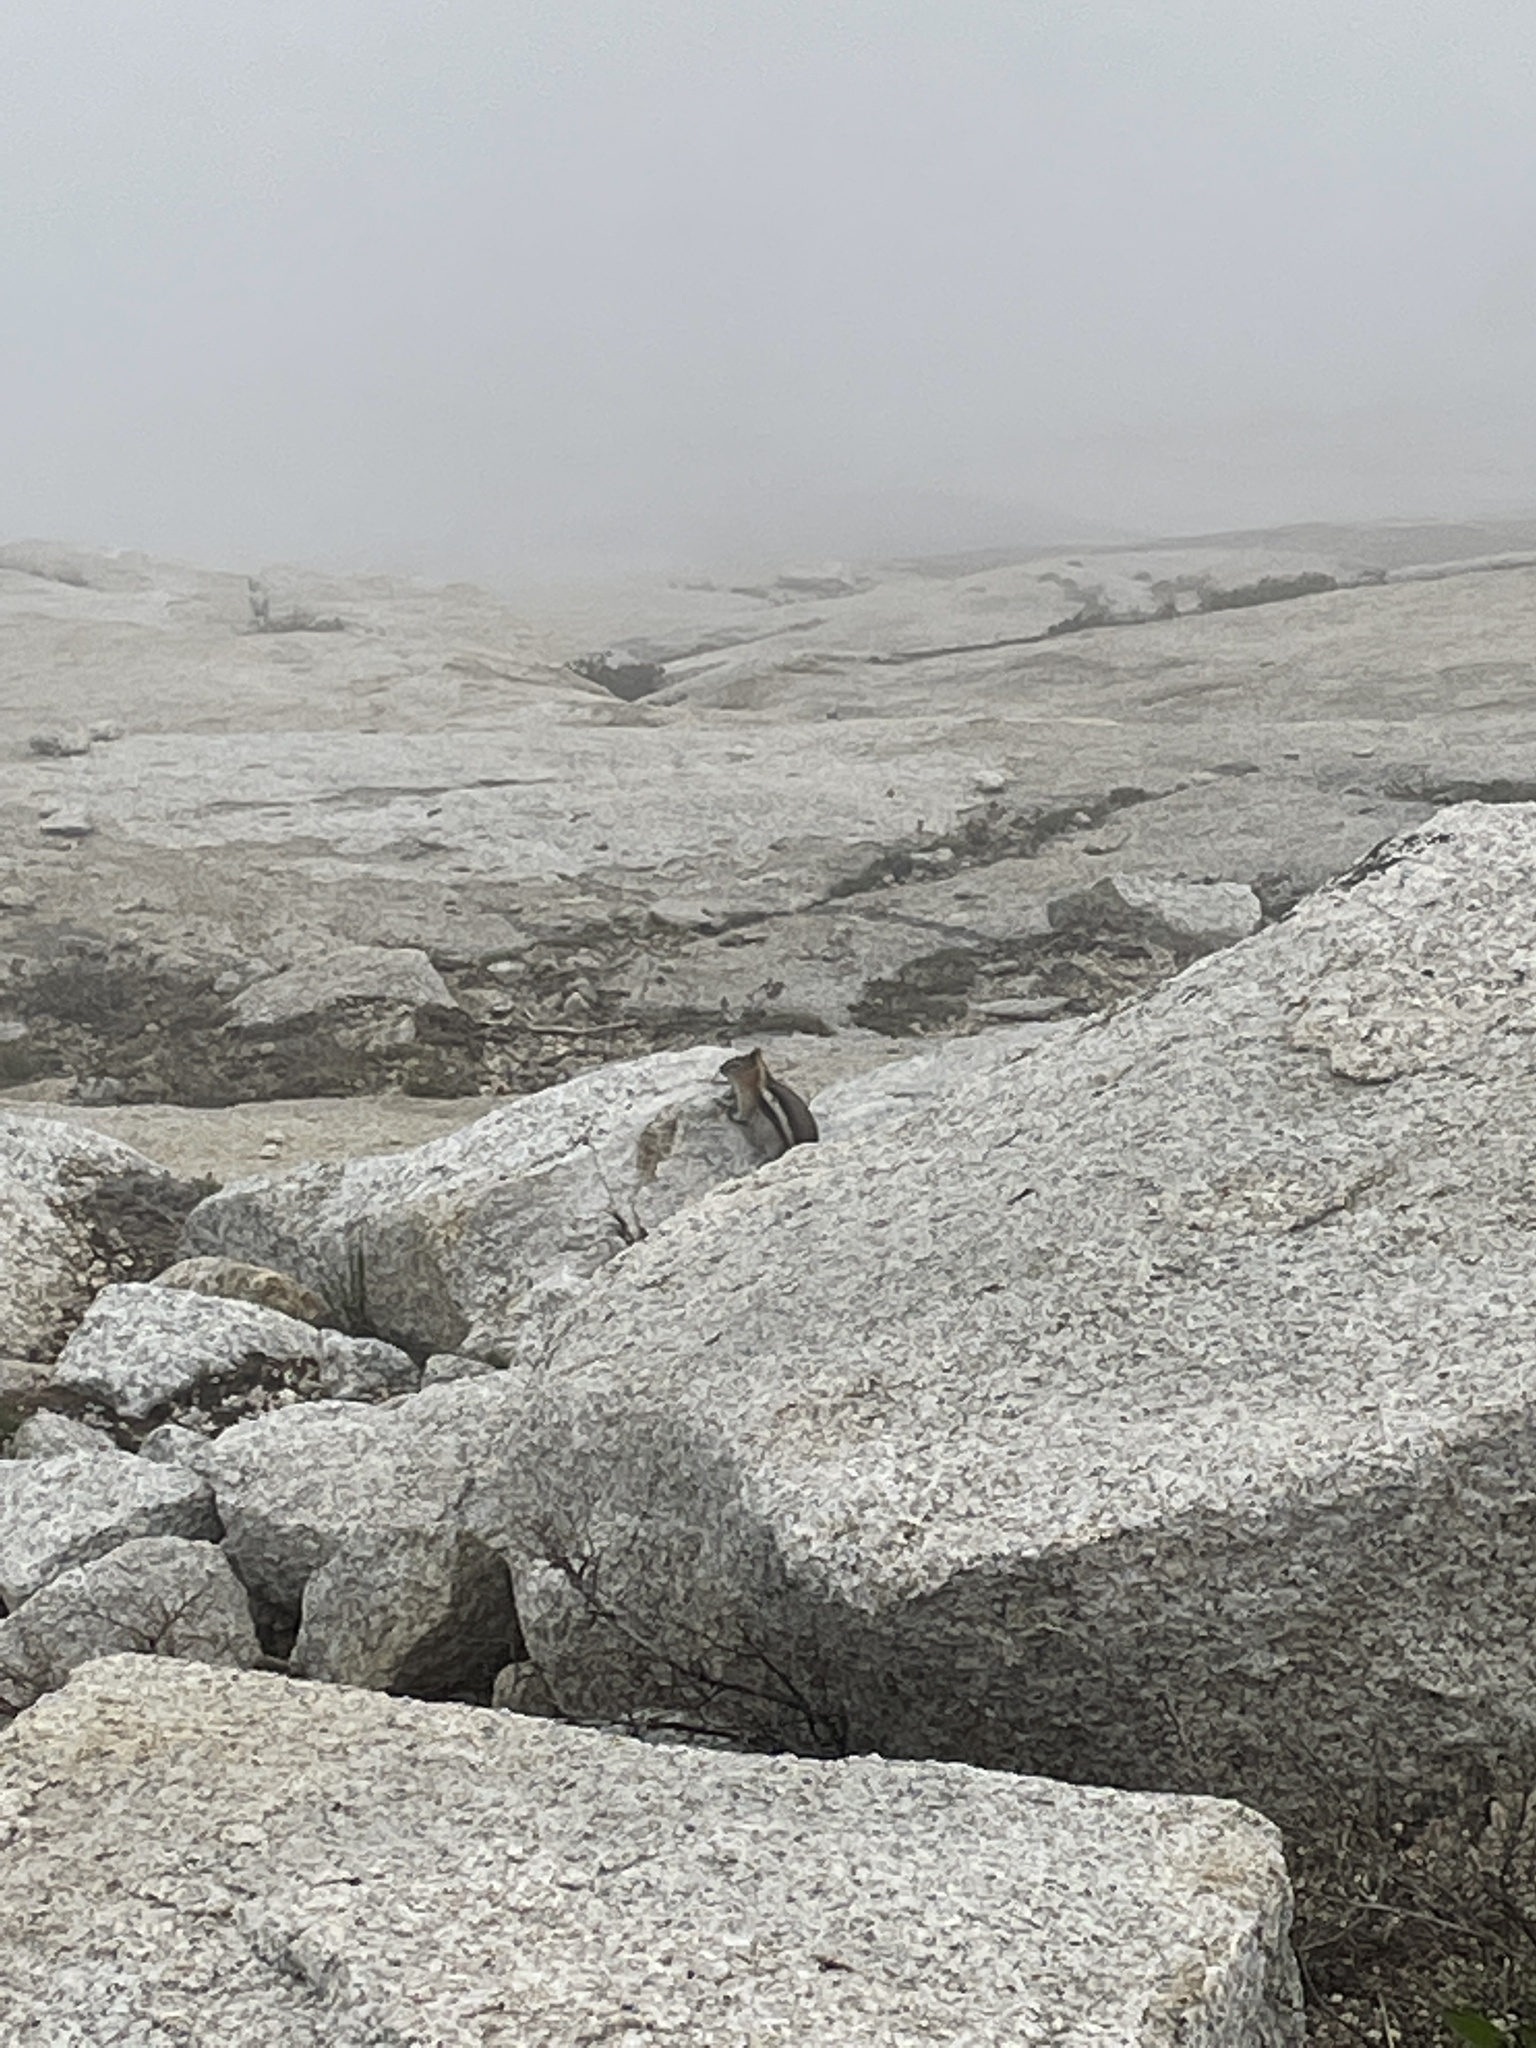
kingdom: Animalia
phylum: Chordata
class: Mammalia
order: Rodentia
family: Sciuridae
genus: Callospermophilus
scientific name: Callospermophilus lateralis
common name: Golden-mantled ground squirrel
